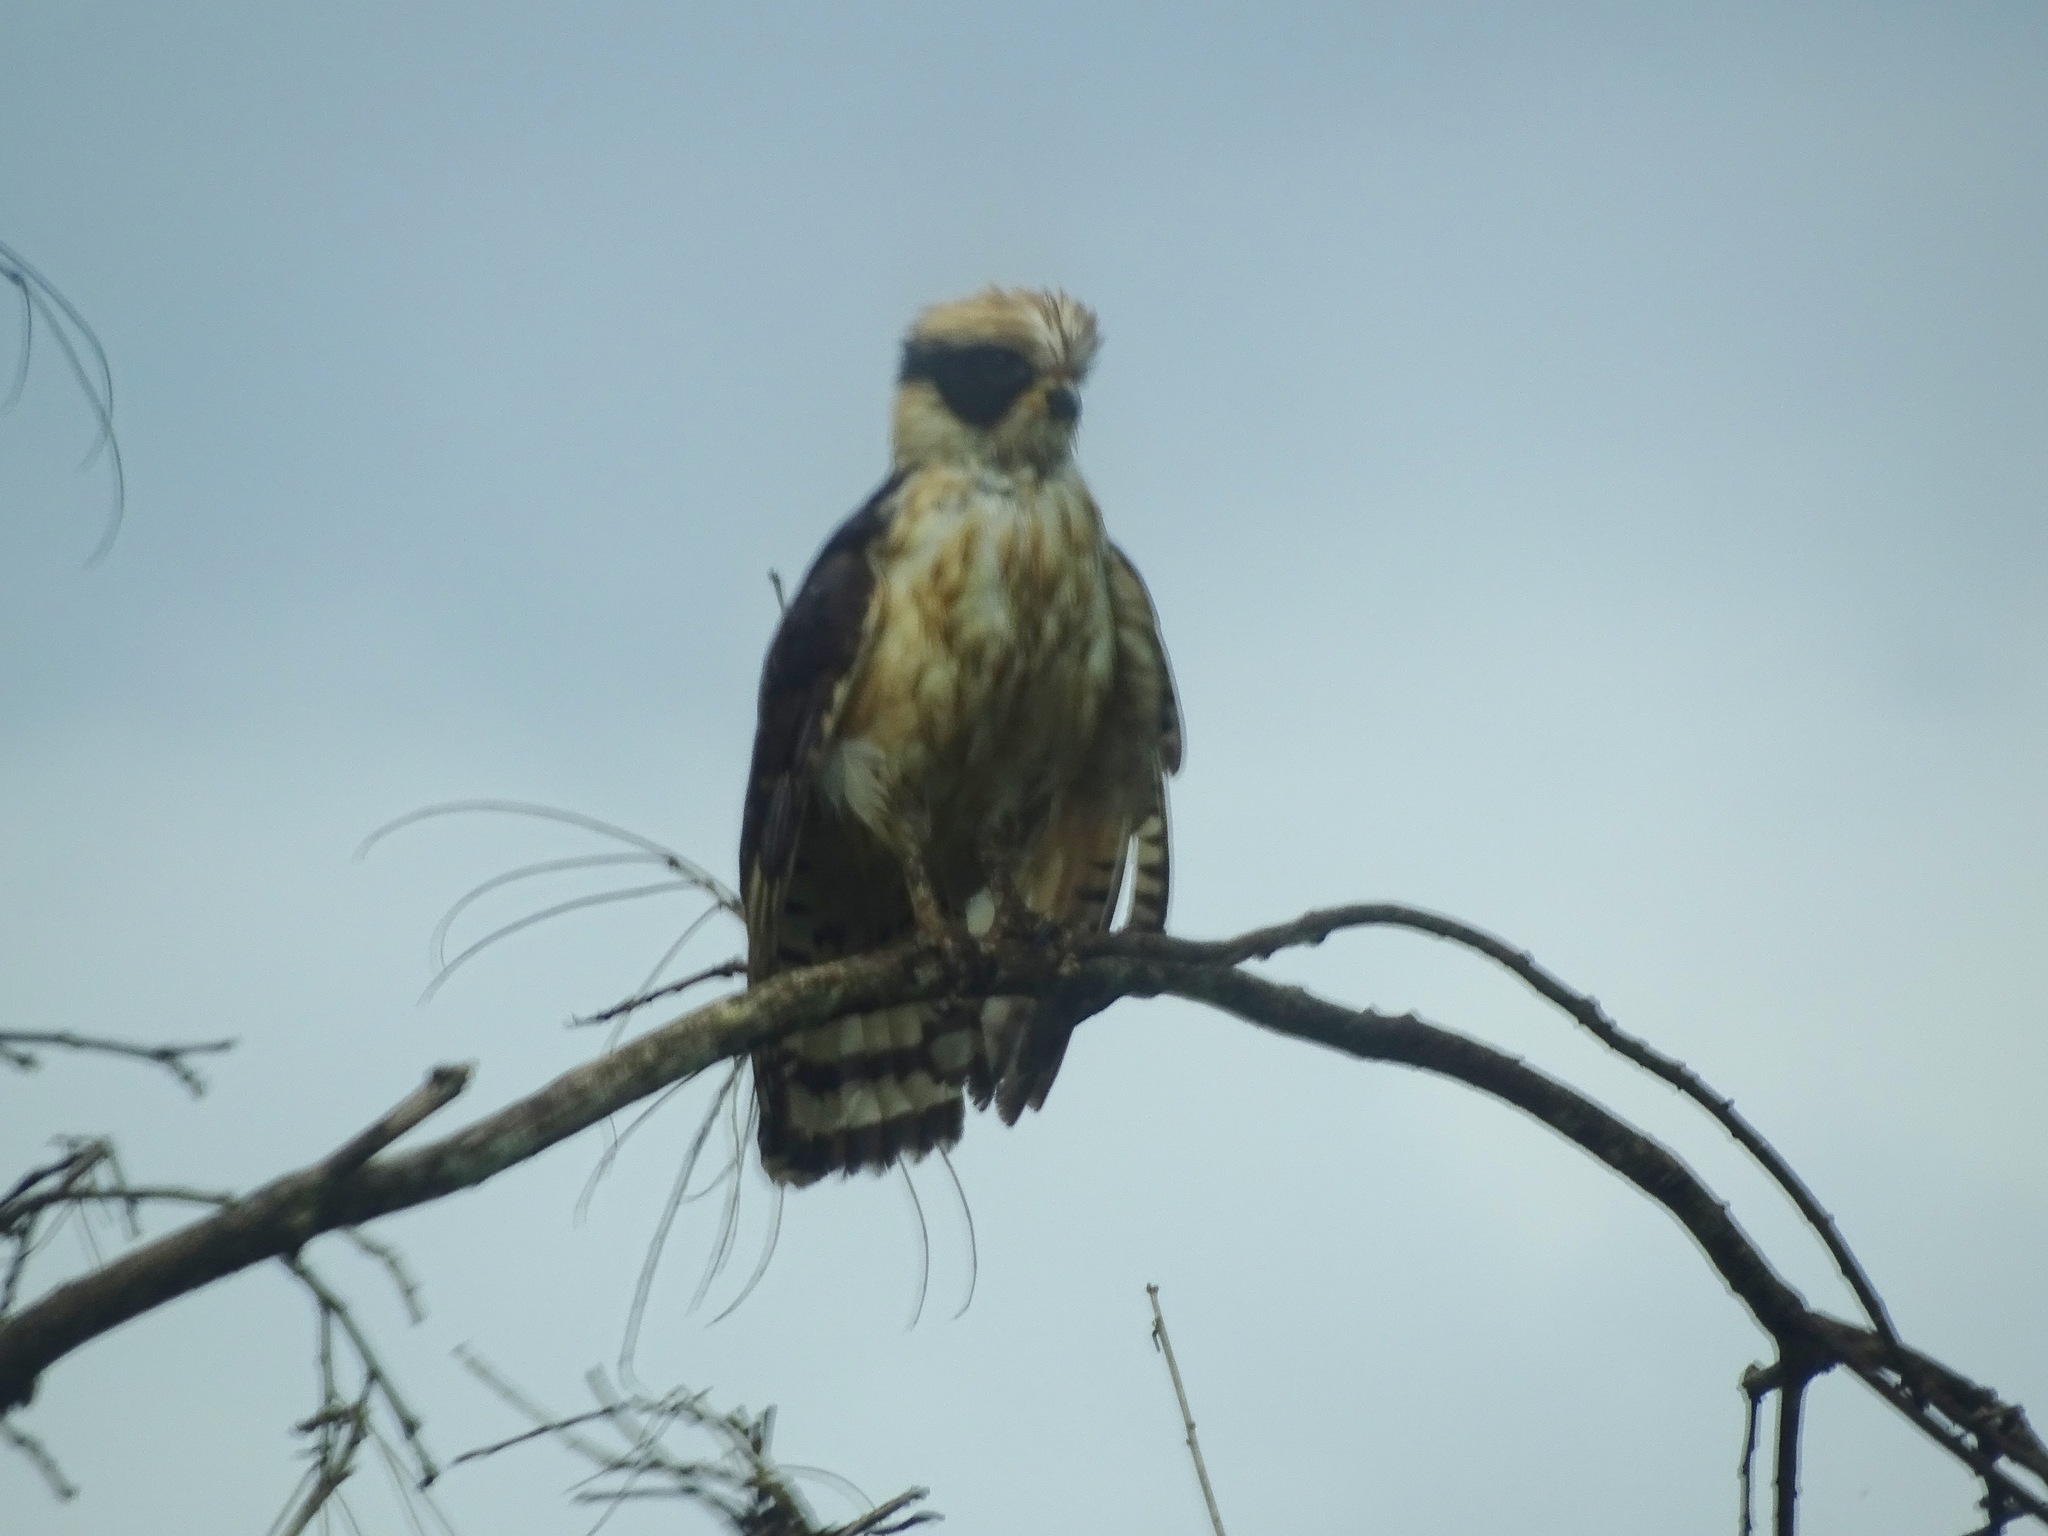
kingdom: Animalia
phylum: Chordata
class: Aves
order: Falconiformes
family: Falconidae
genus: Herpetotheres
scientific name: Herpetotheres cachinnans
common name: Laughing falcon
